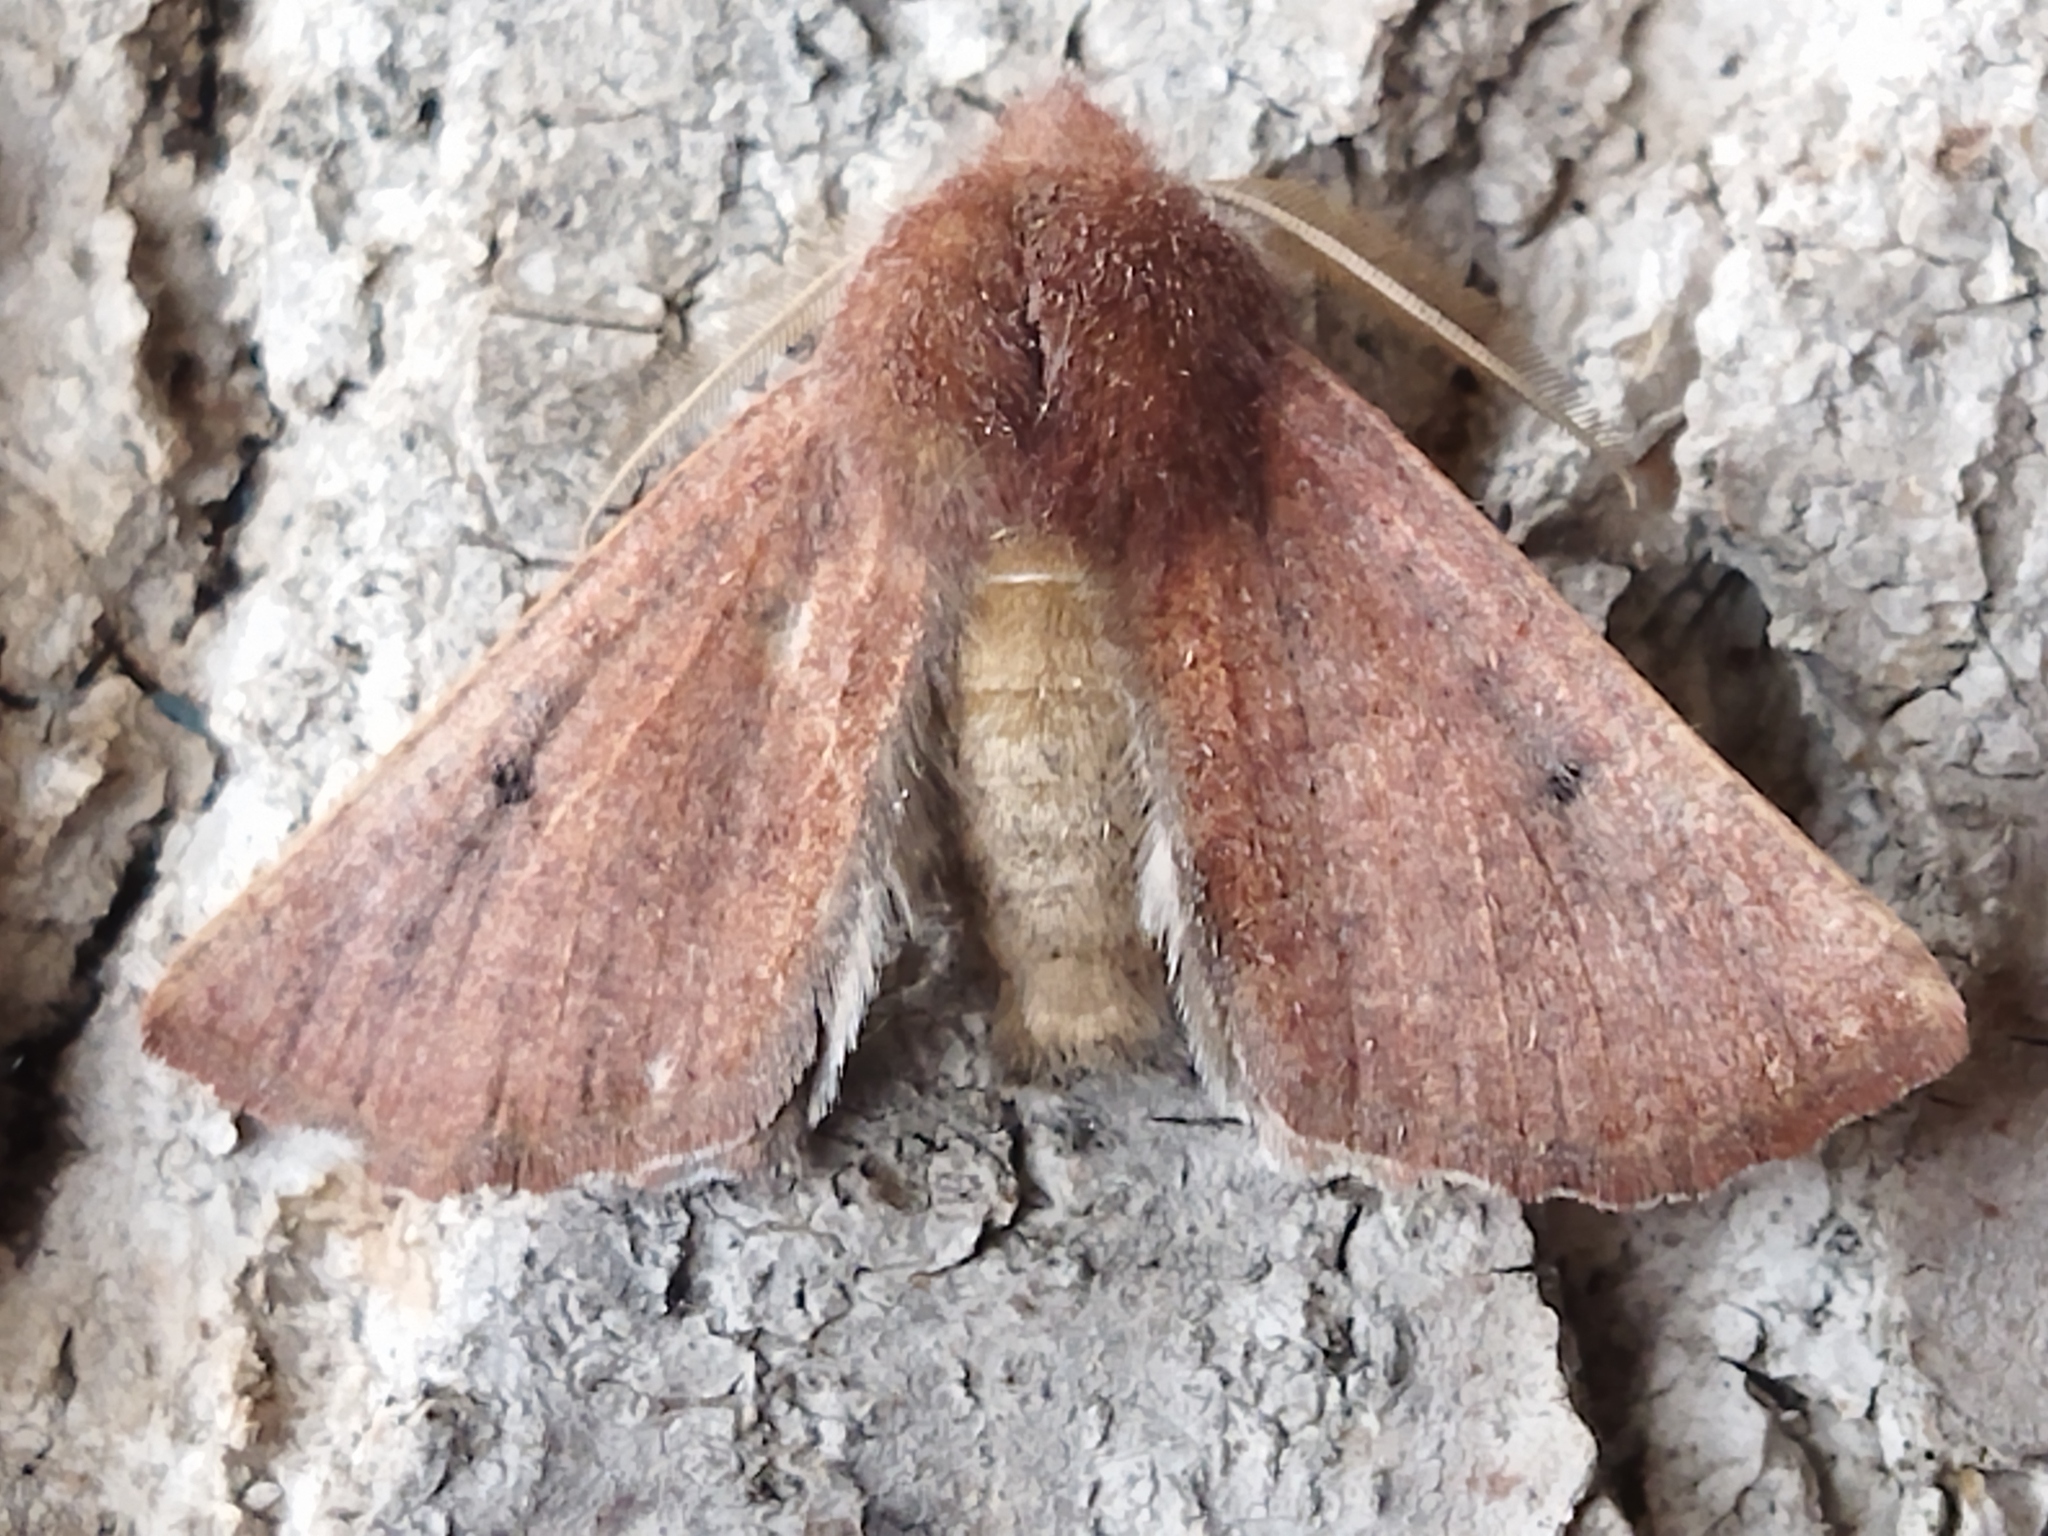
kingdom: Animalia
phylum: Arthropoda
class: Insecta
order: Lepidoptera
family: Geometridae
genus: Dasycorsa
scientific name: Dasycorsa modesta
